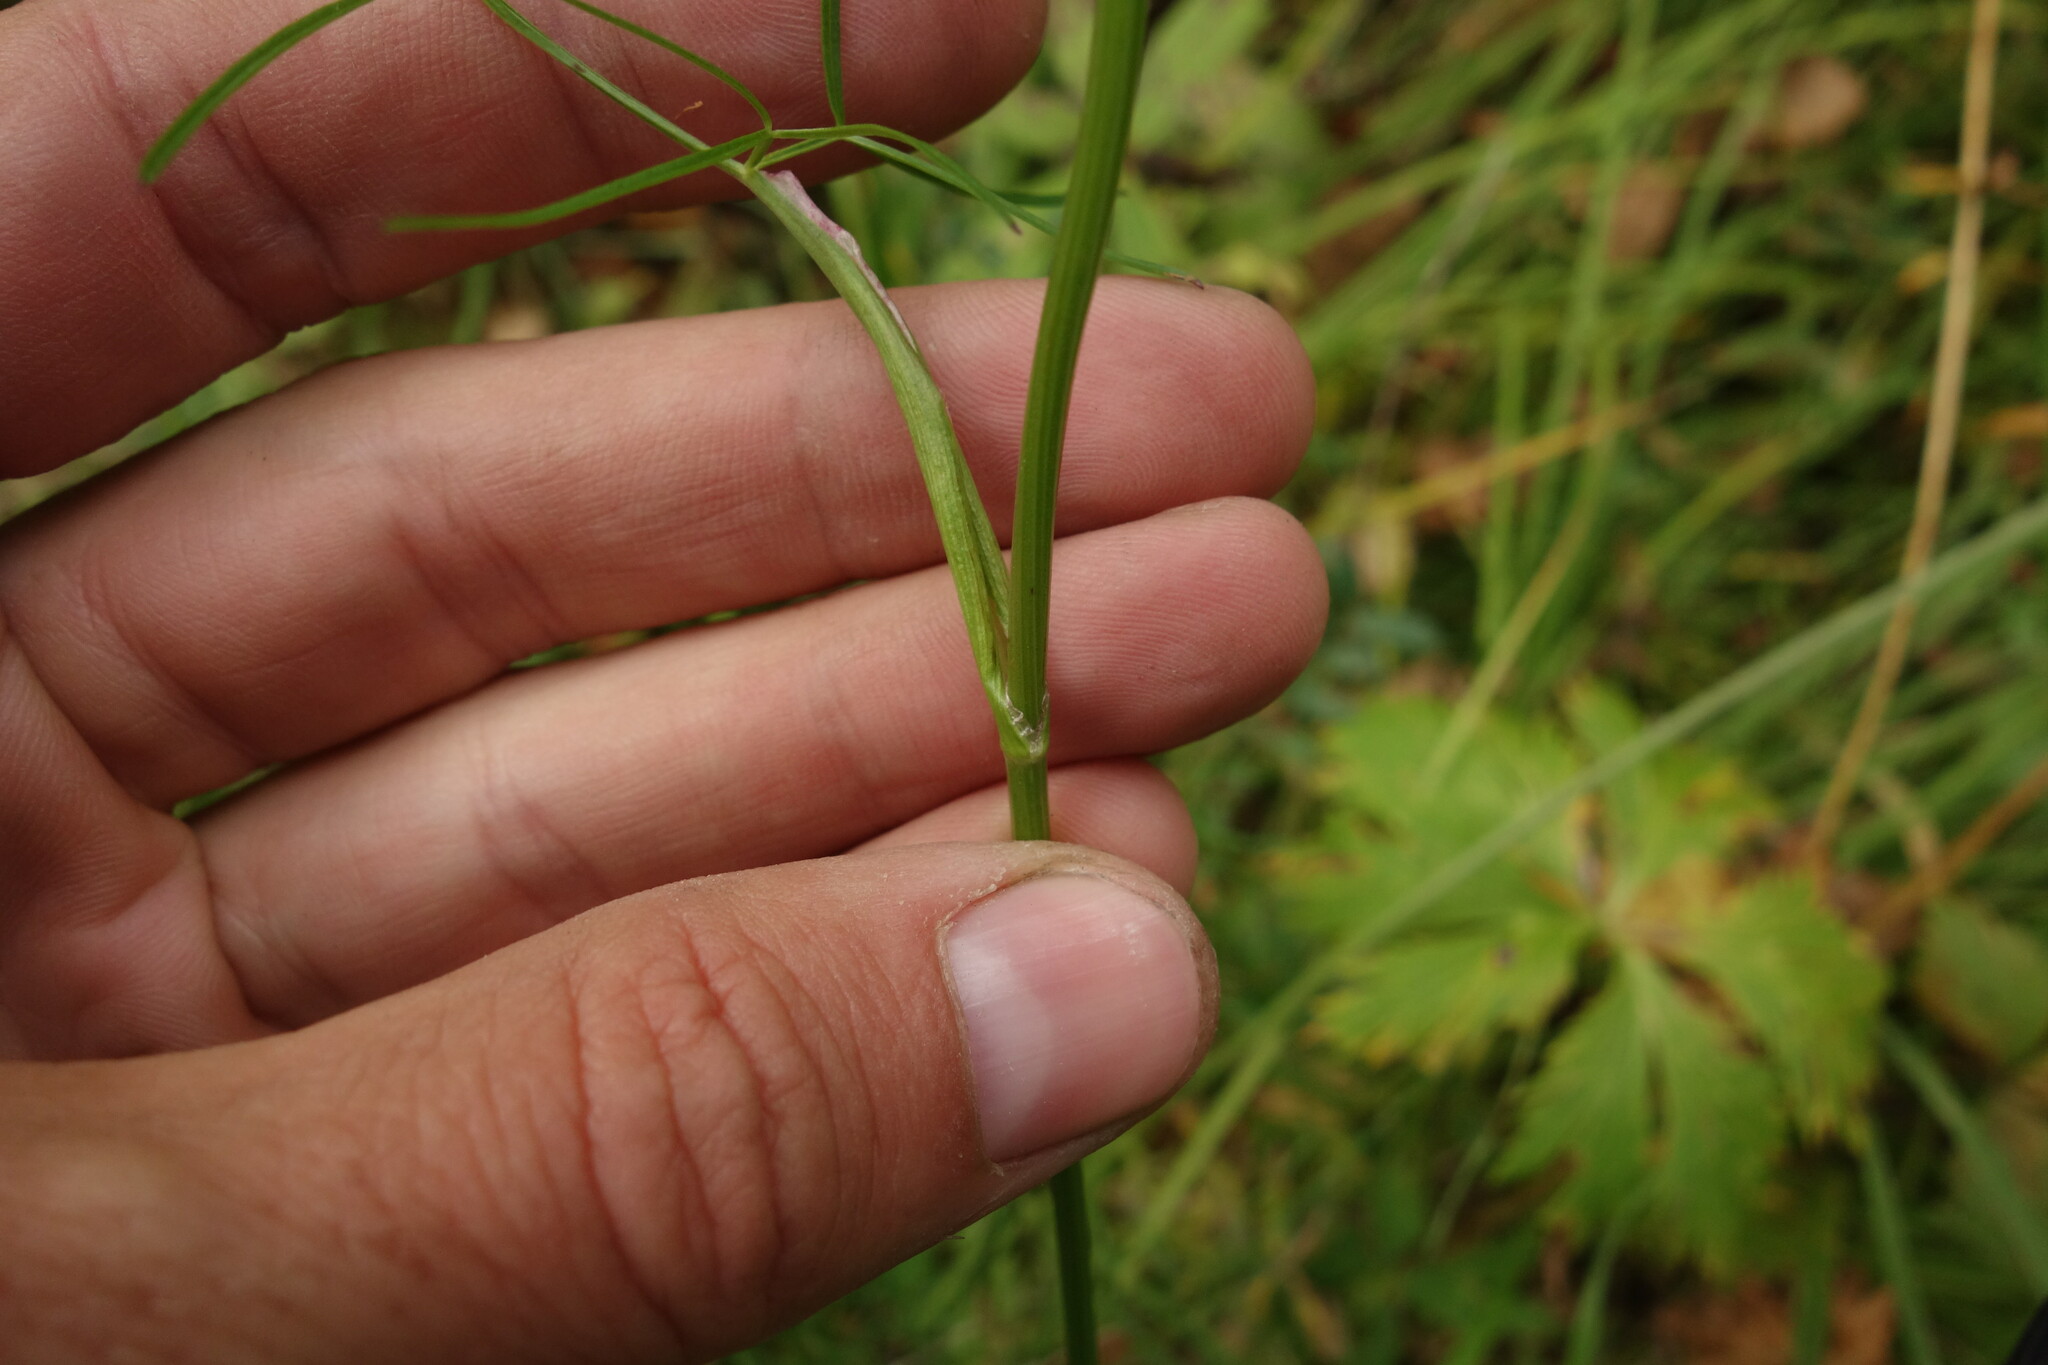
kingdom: Plantae
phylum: Tracheophyta
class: Magnoliopsida
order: Apiales
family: Apiaceae
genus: Ostericum
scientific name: Ostericum tenuifolium
